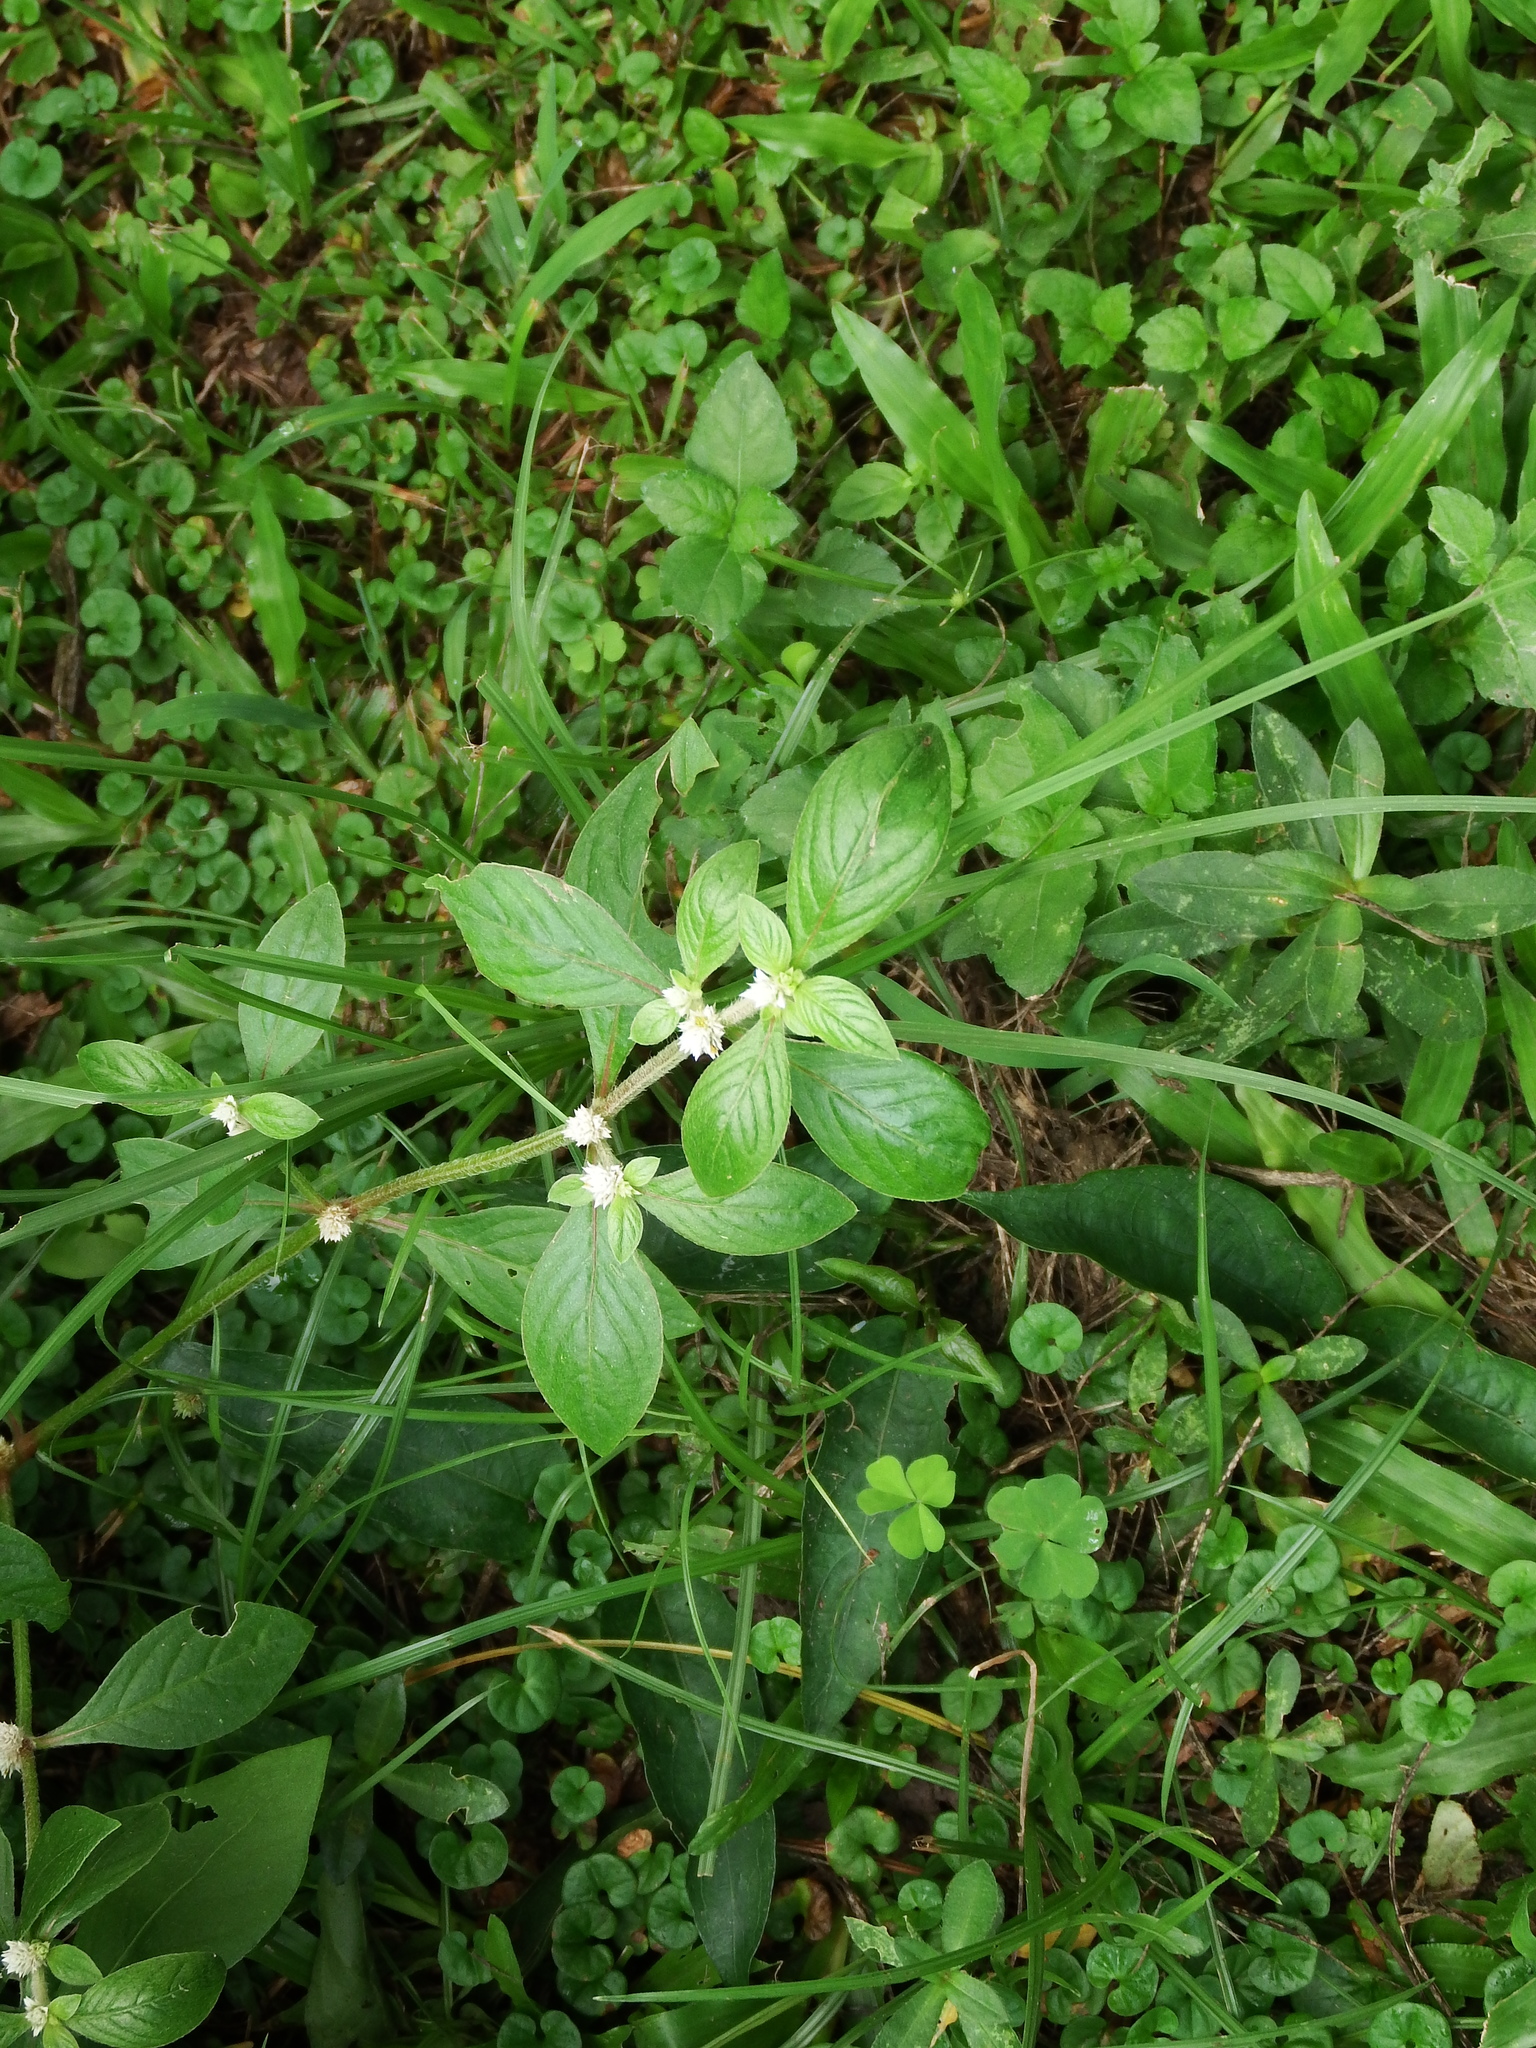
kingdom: Plantae
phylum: Tracheophyta
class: Magnoliopsida
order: Caryophyllales
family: Amaranthaceae
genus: Alternanthera
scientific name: Alternanthera bettzickiana
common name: Calico-plant
